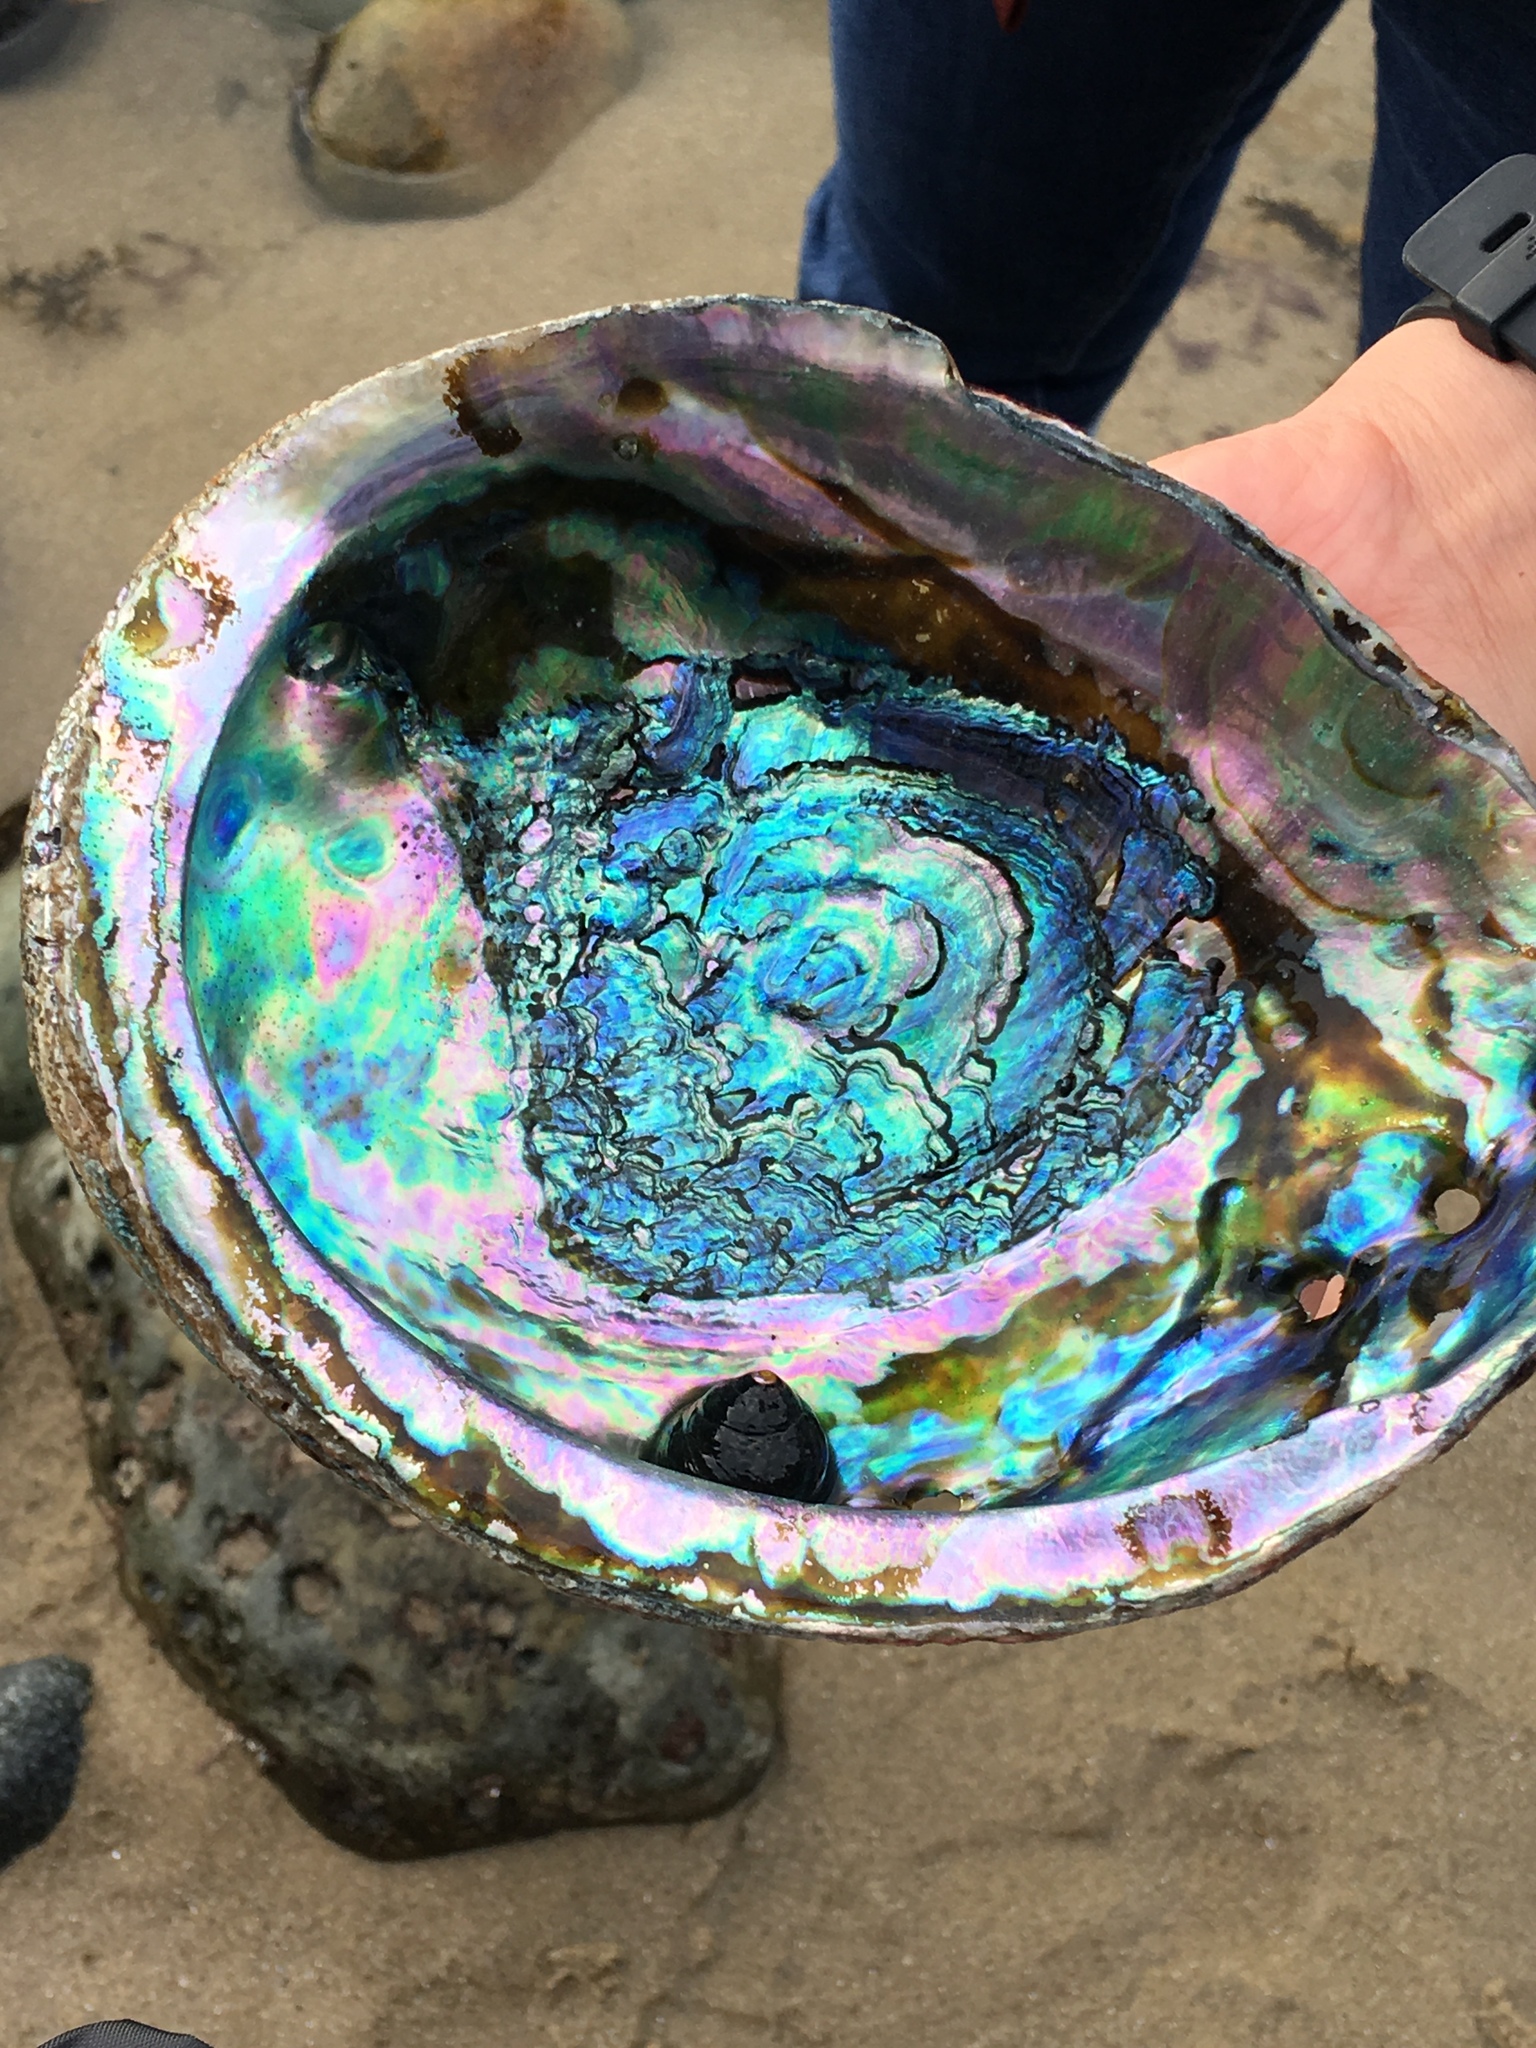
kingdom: Animalia
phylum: Mollusca
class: Gastropoda
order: Lepetellida
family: Haliotidae
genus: Haliotis
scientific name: Haliotis rufescens
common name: Red abalone
